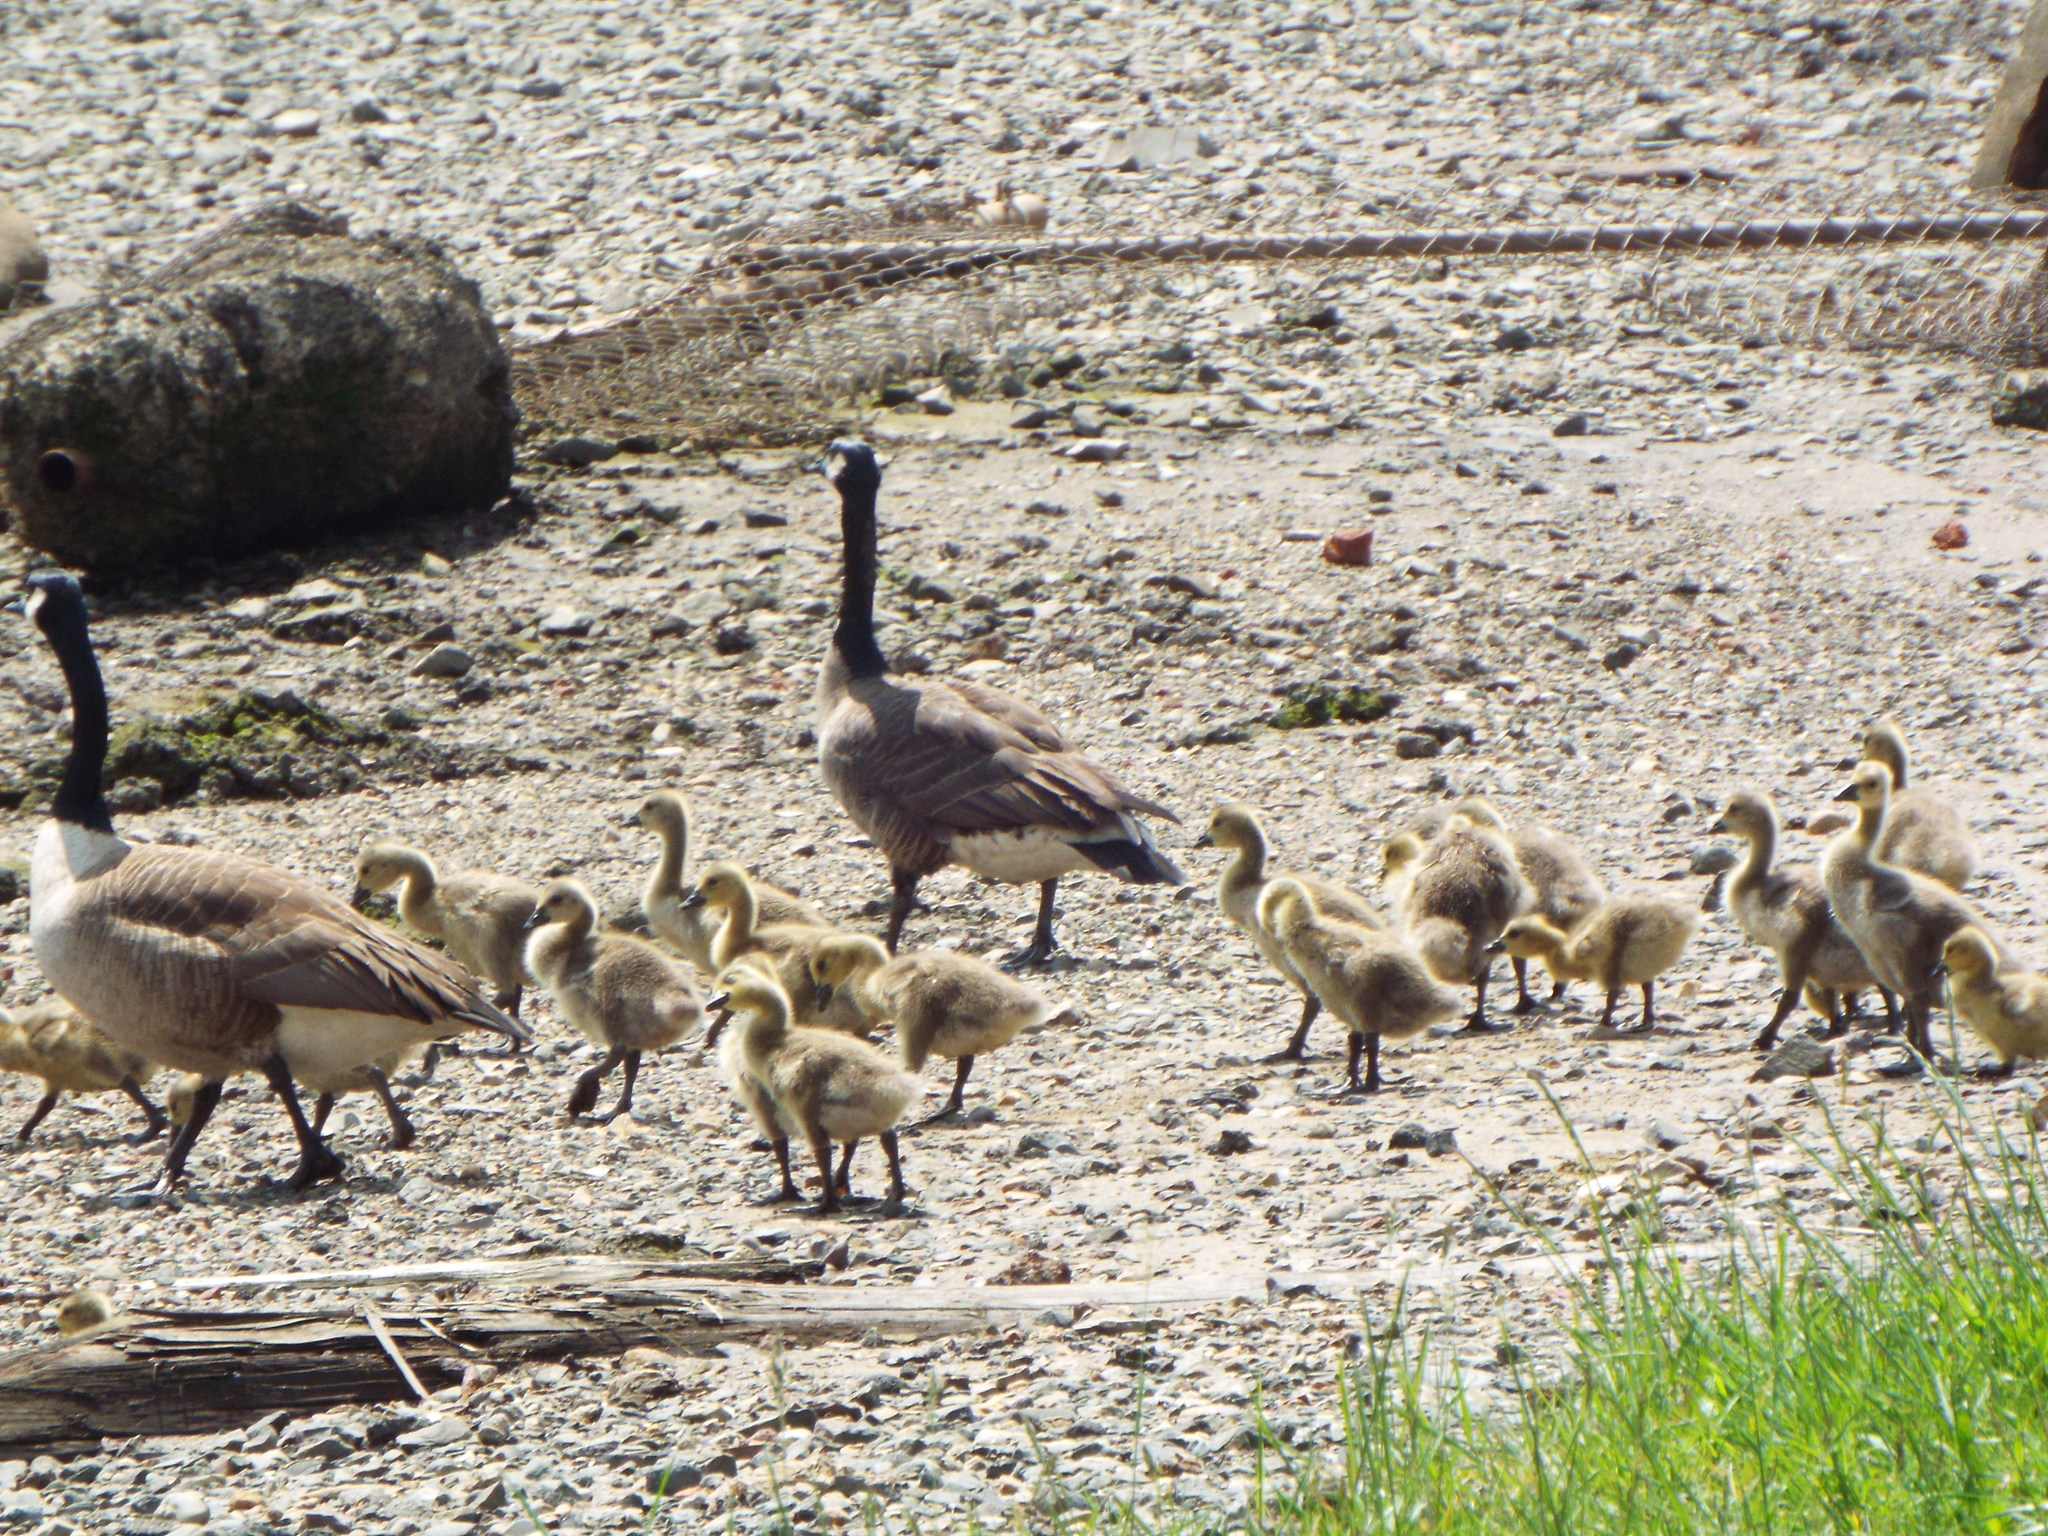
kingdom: Animalia
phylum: Chordata
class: Aves
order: Anseriformes
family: Anatidae
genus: Branta
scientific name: Branta canadensis
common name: Canada goose
